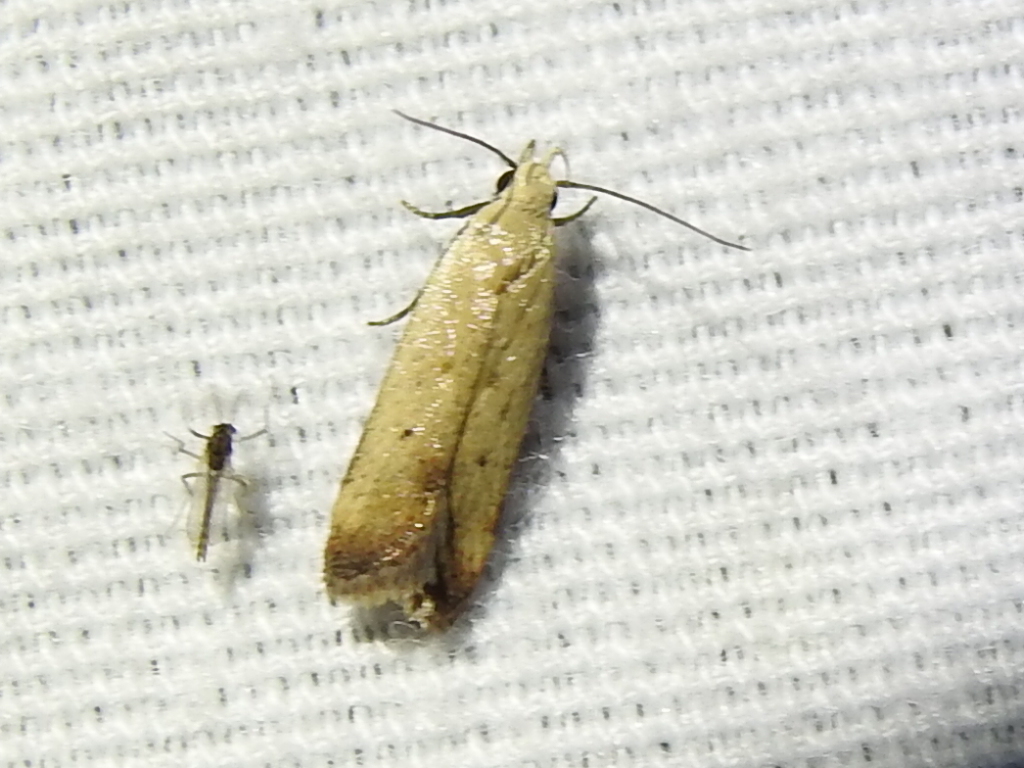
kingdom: Animalia
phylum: Arthropoda
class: Insecta
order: Lepidoptera
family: Gelechiidae
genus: Anacampsis
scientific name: Anacampsis fullonella
